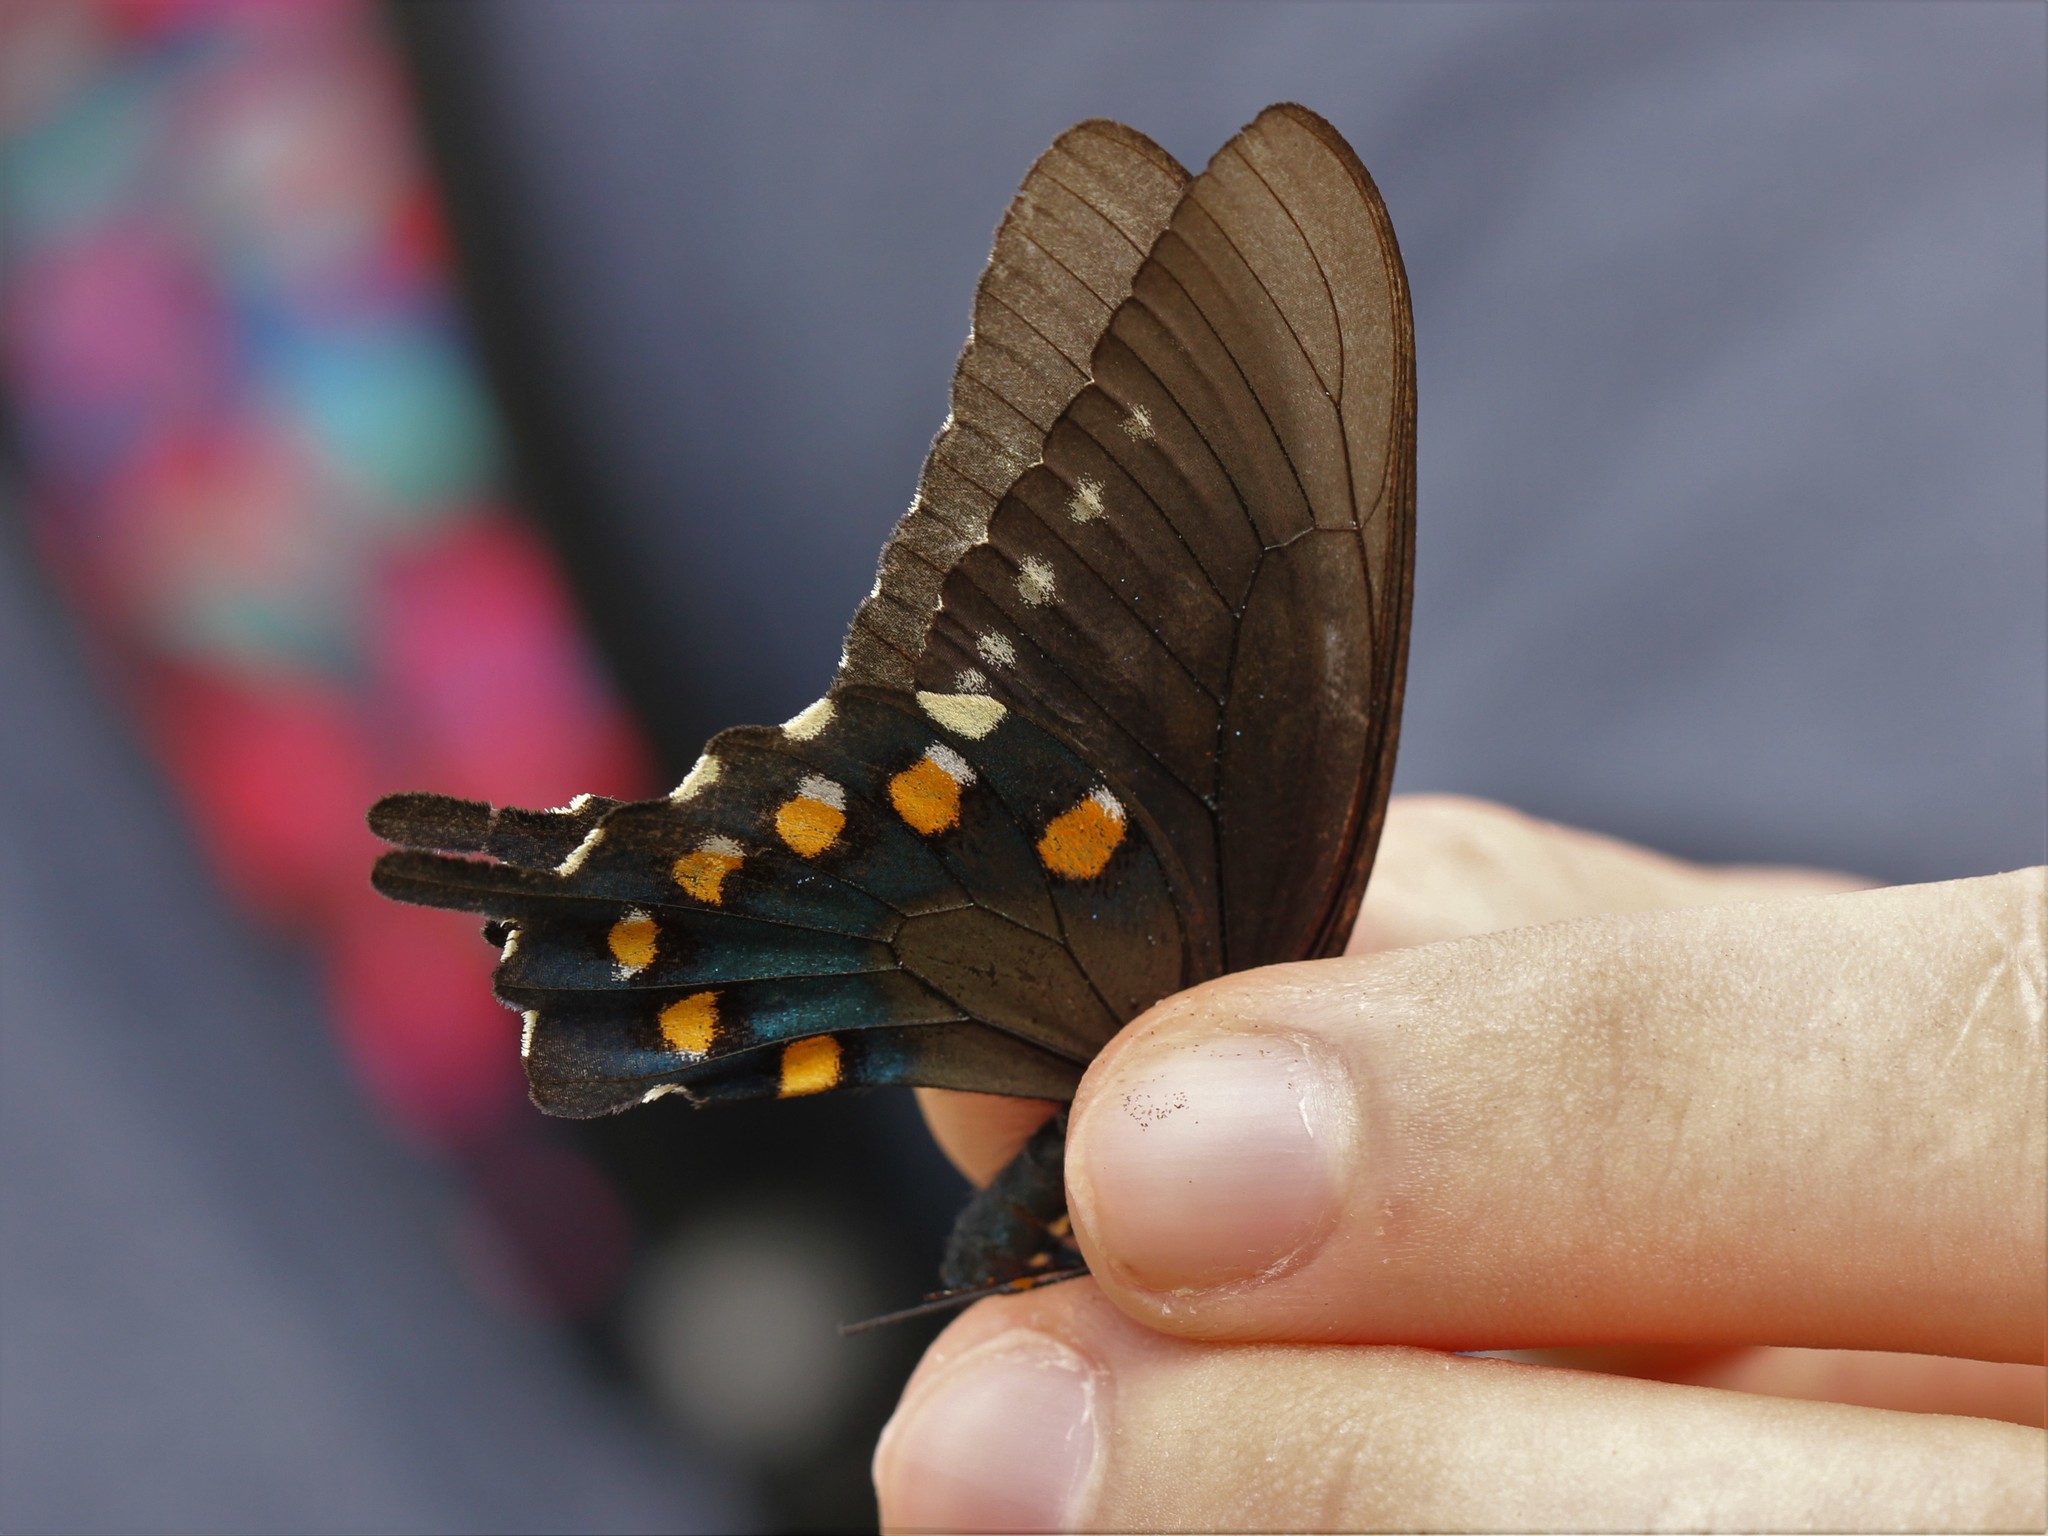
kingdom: Animalia
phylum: Arthropoda
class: Insecta
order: Lepidoptera
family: Papilionidae
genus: Battus
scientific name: Battus philenor
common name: Pipevine swallowtail
